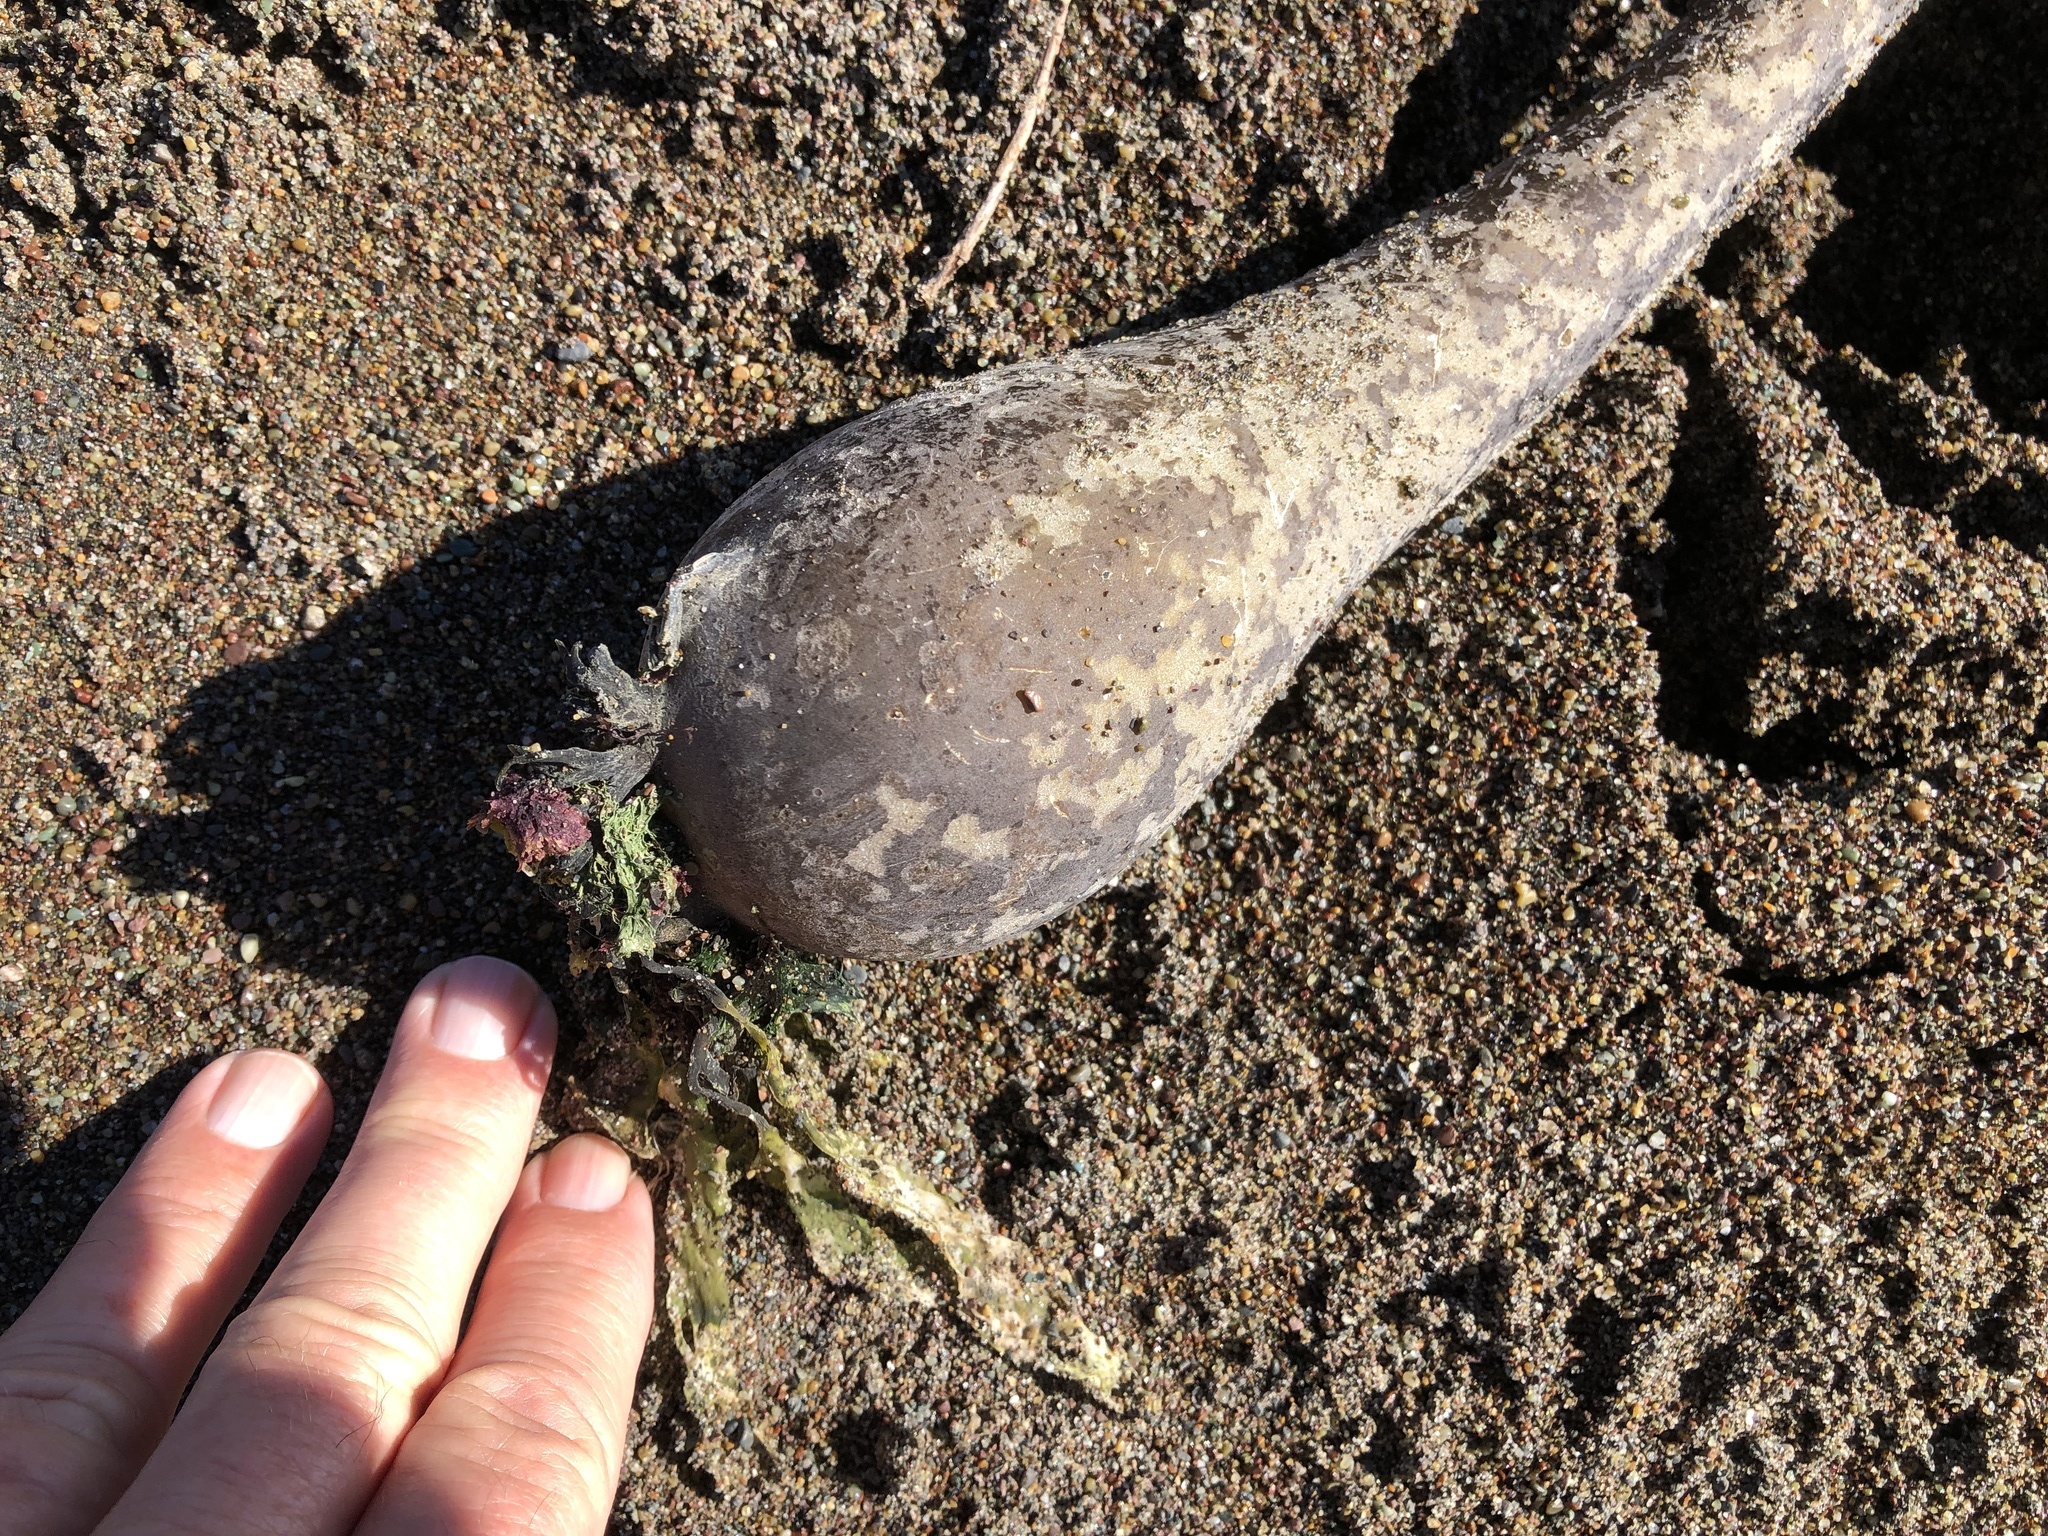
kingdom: Chromista
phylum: Ochrophyta
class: Phaeophyceae
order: Laminariales
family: Laminariaceae
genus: Nereocystis
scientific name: Nereocystis luetkeana
